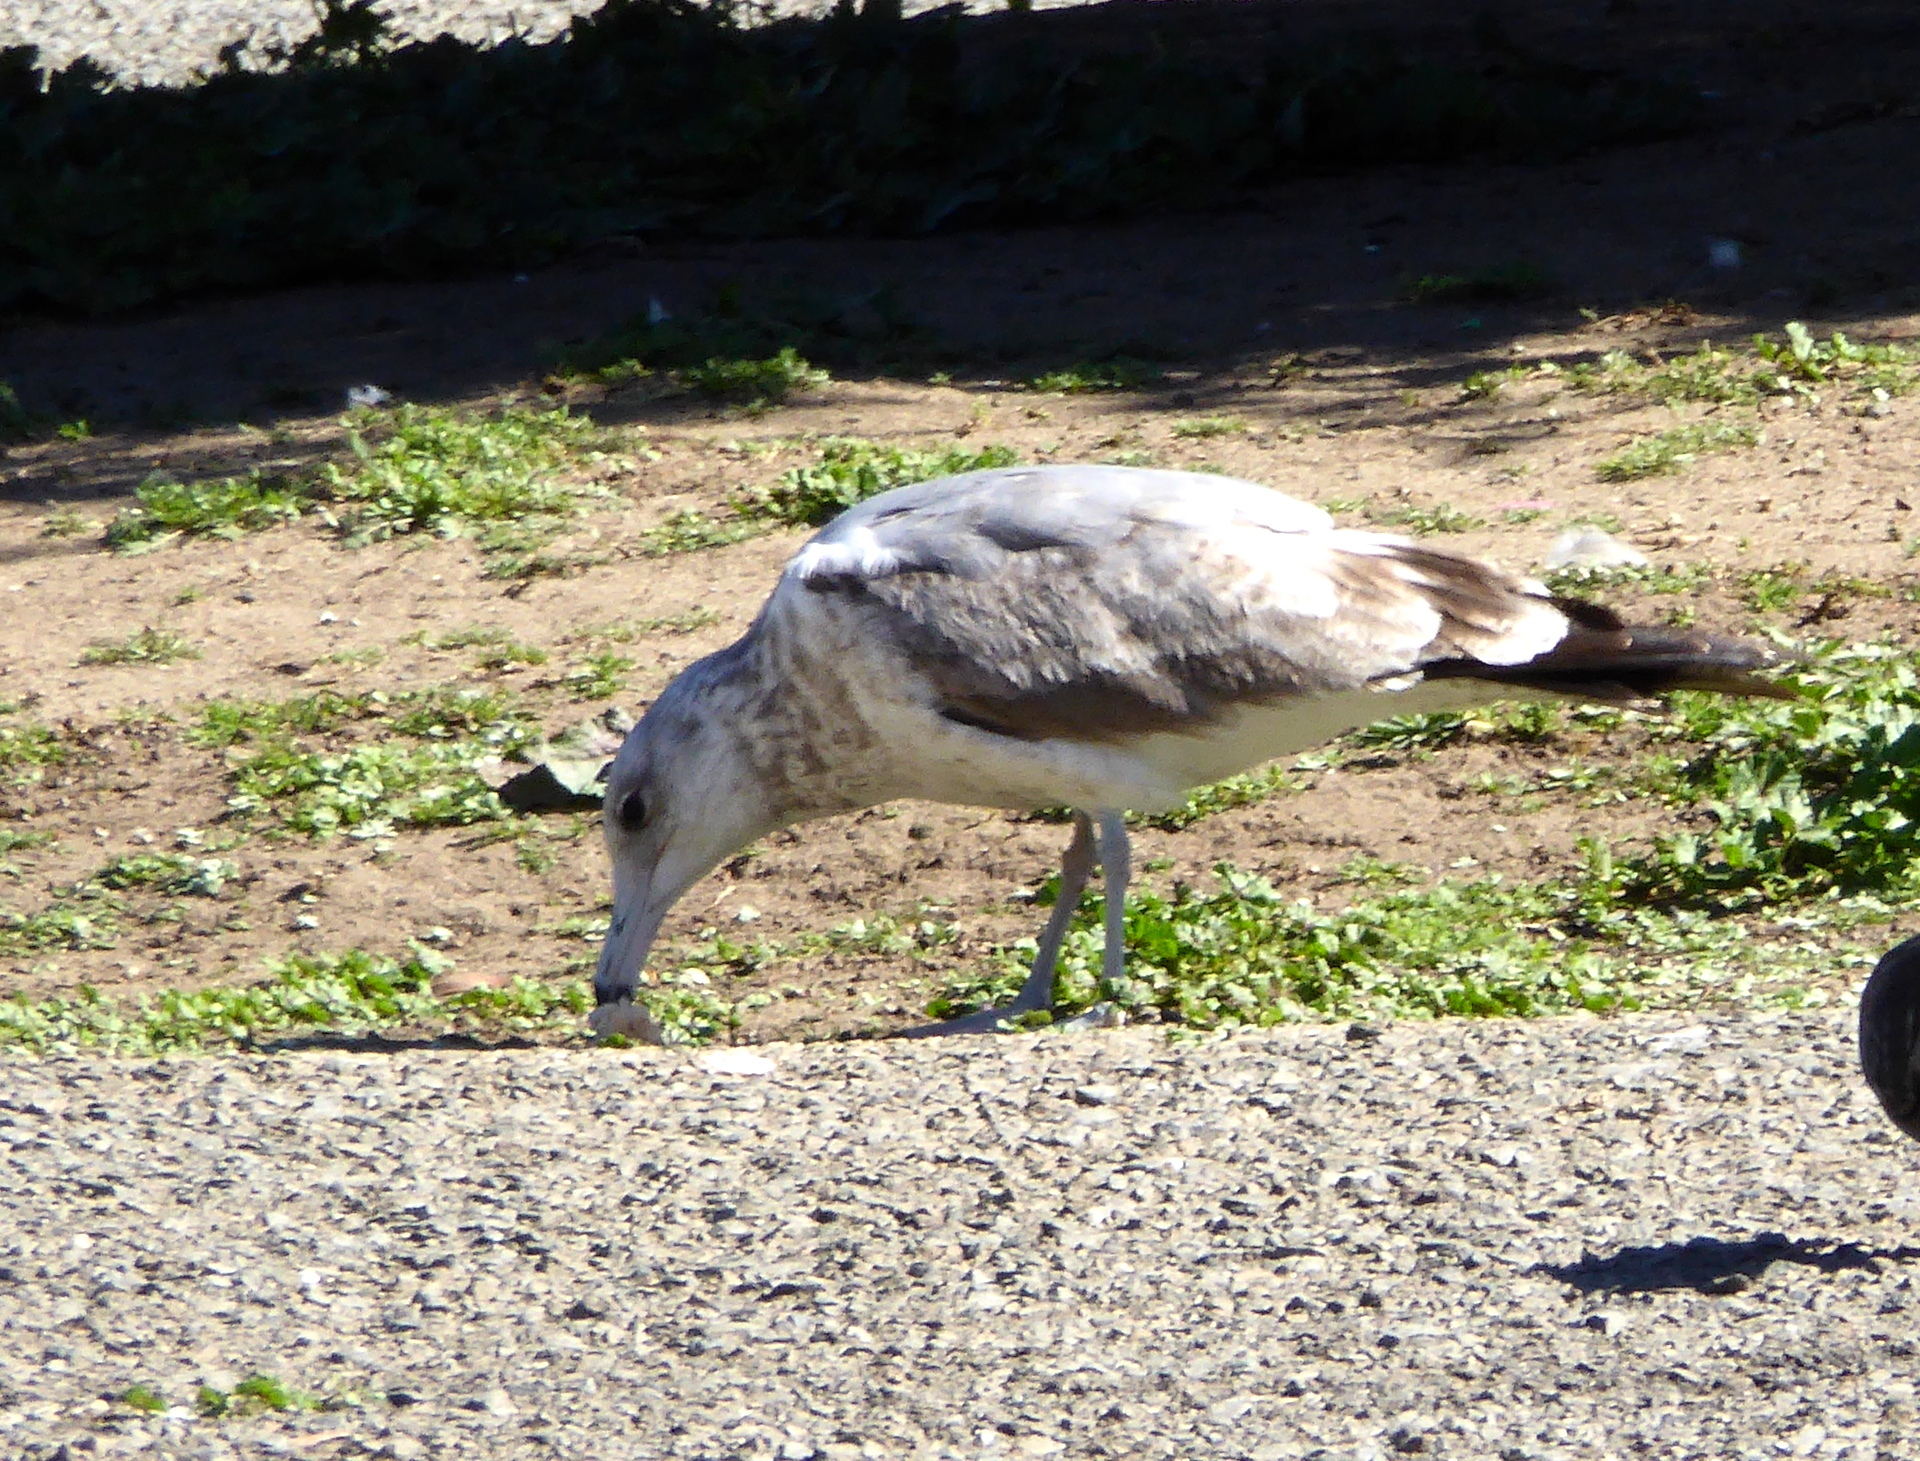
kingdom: Animalia
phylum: Chordata
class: Aves
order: Charadriiformes
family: Laridae
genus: Larus
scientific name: Larus californicus
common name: California gull
